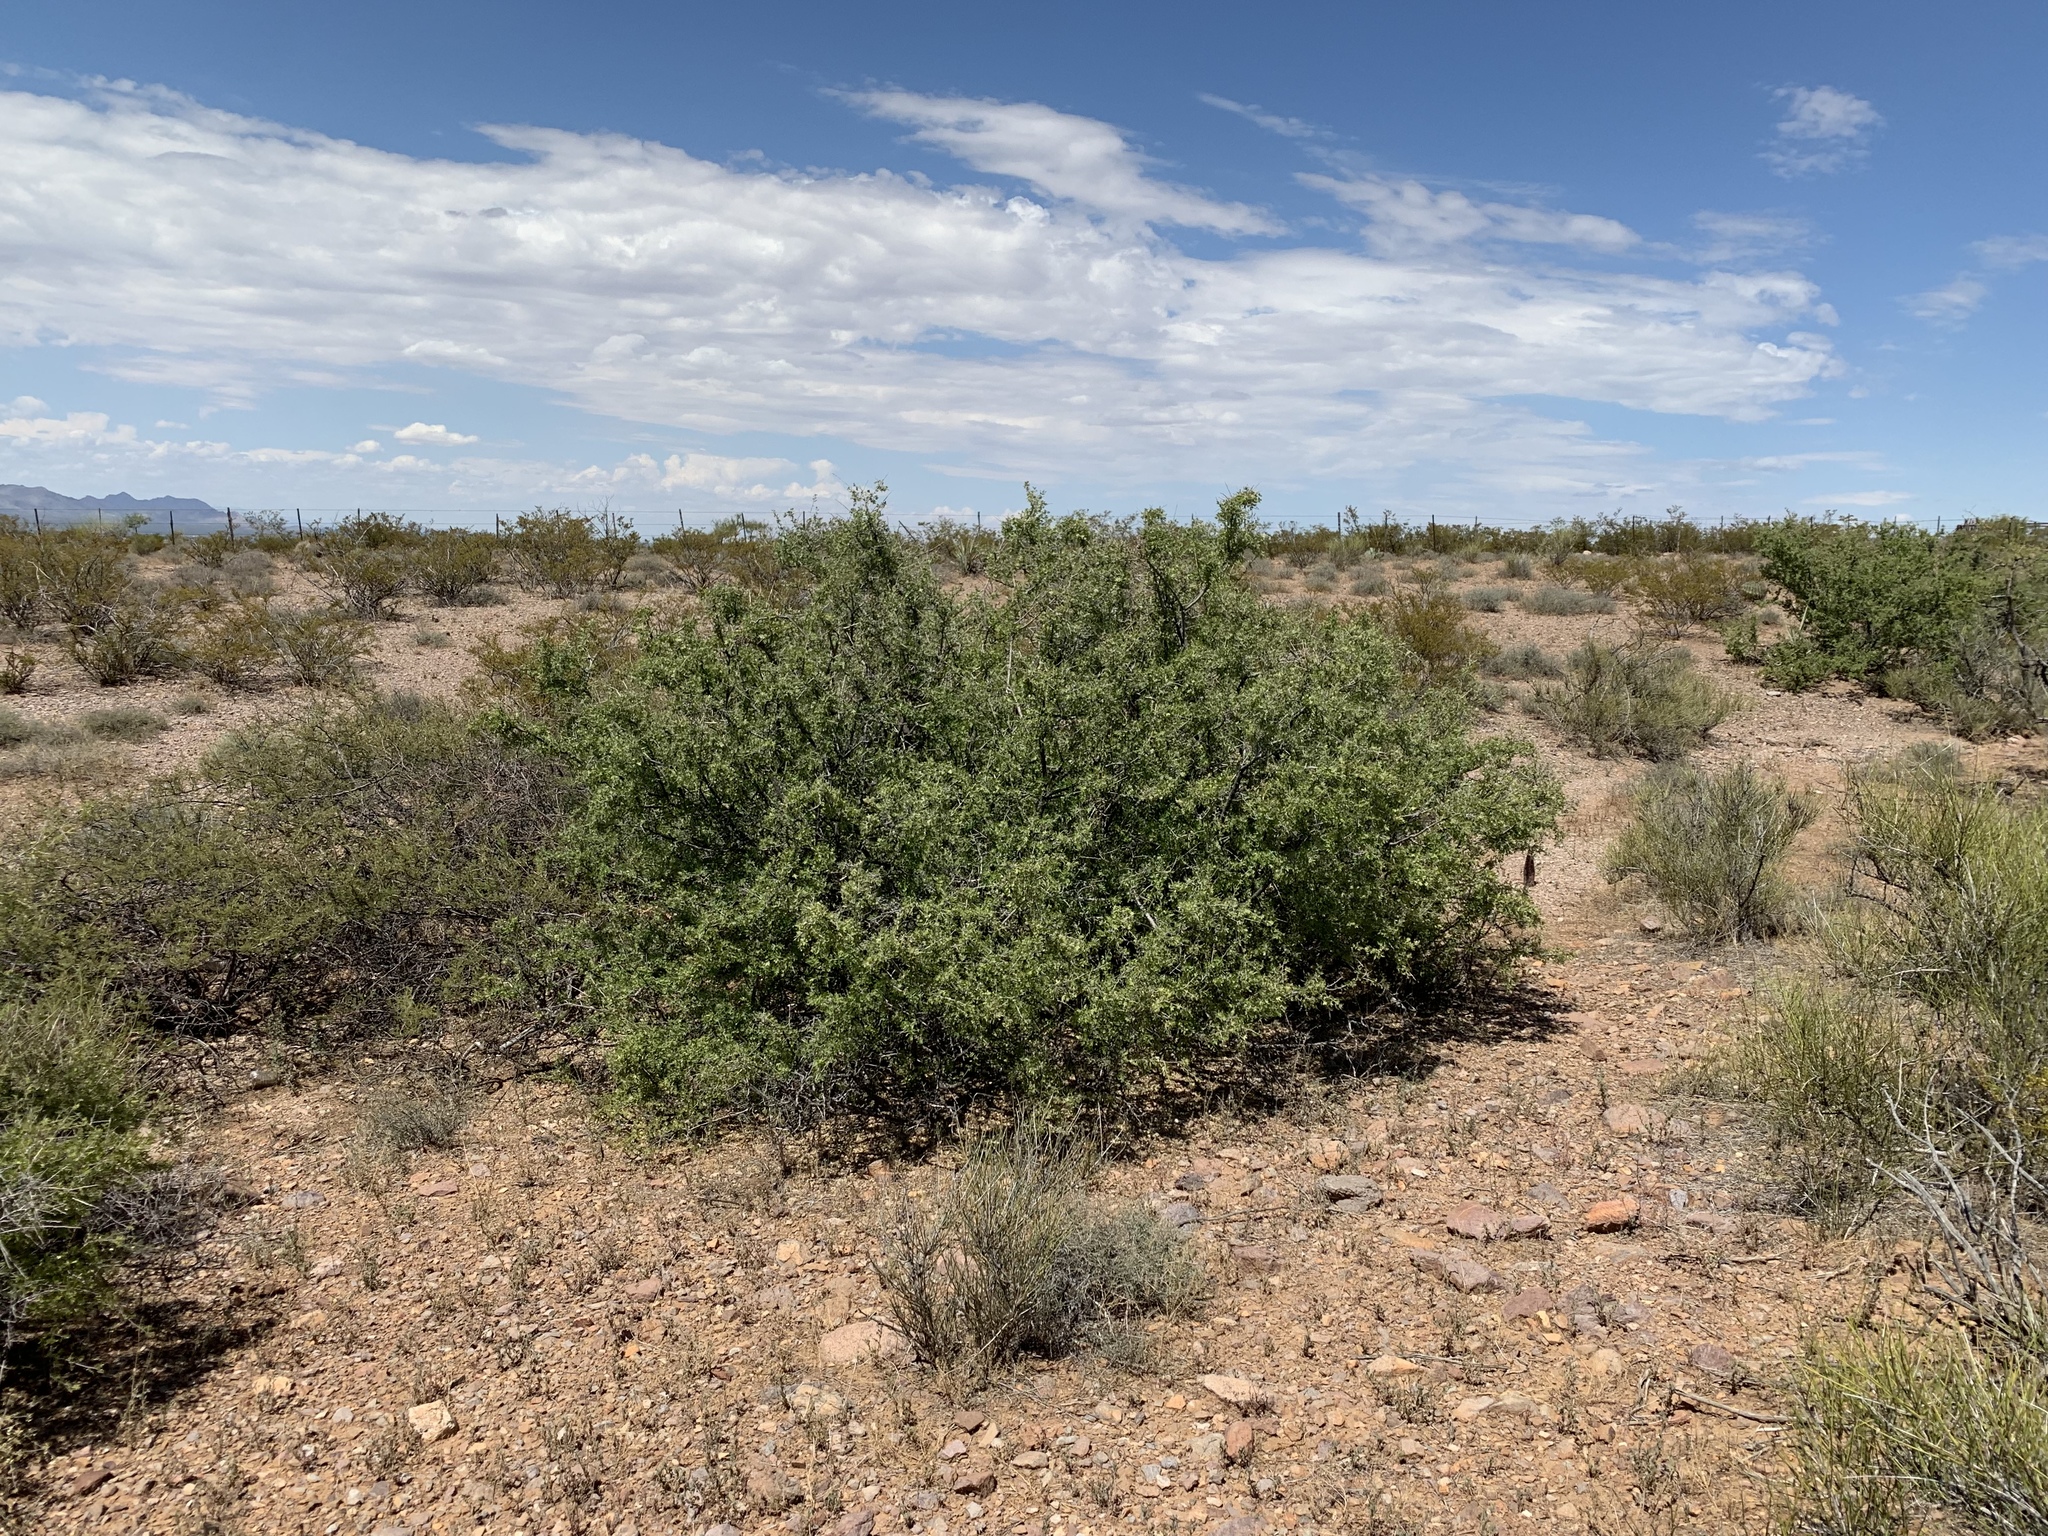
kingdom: Plantae
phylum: Tracheophyta
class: Magnoliopsida
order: Sapindales
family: Anacardiaceae
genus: Rhus
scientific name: Rhus microphylla
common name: Desert sumac
